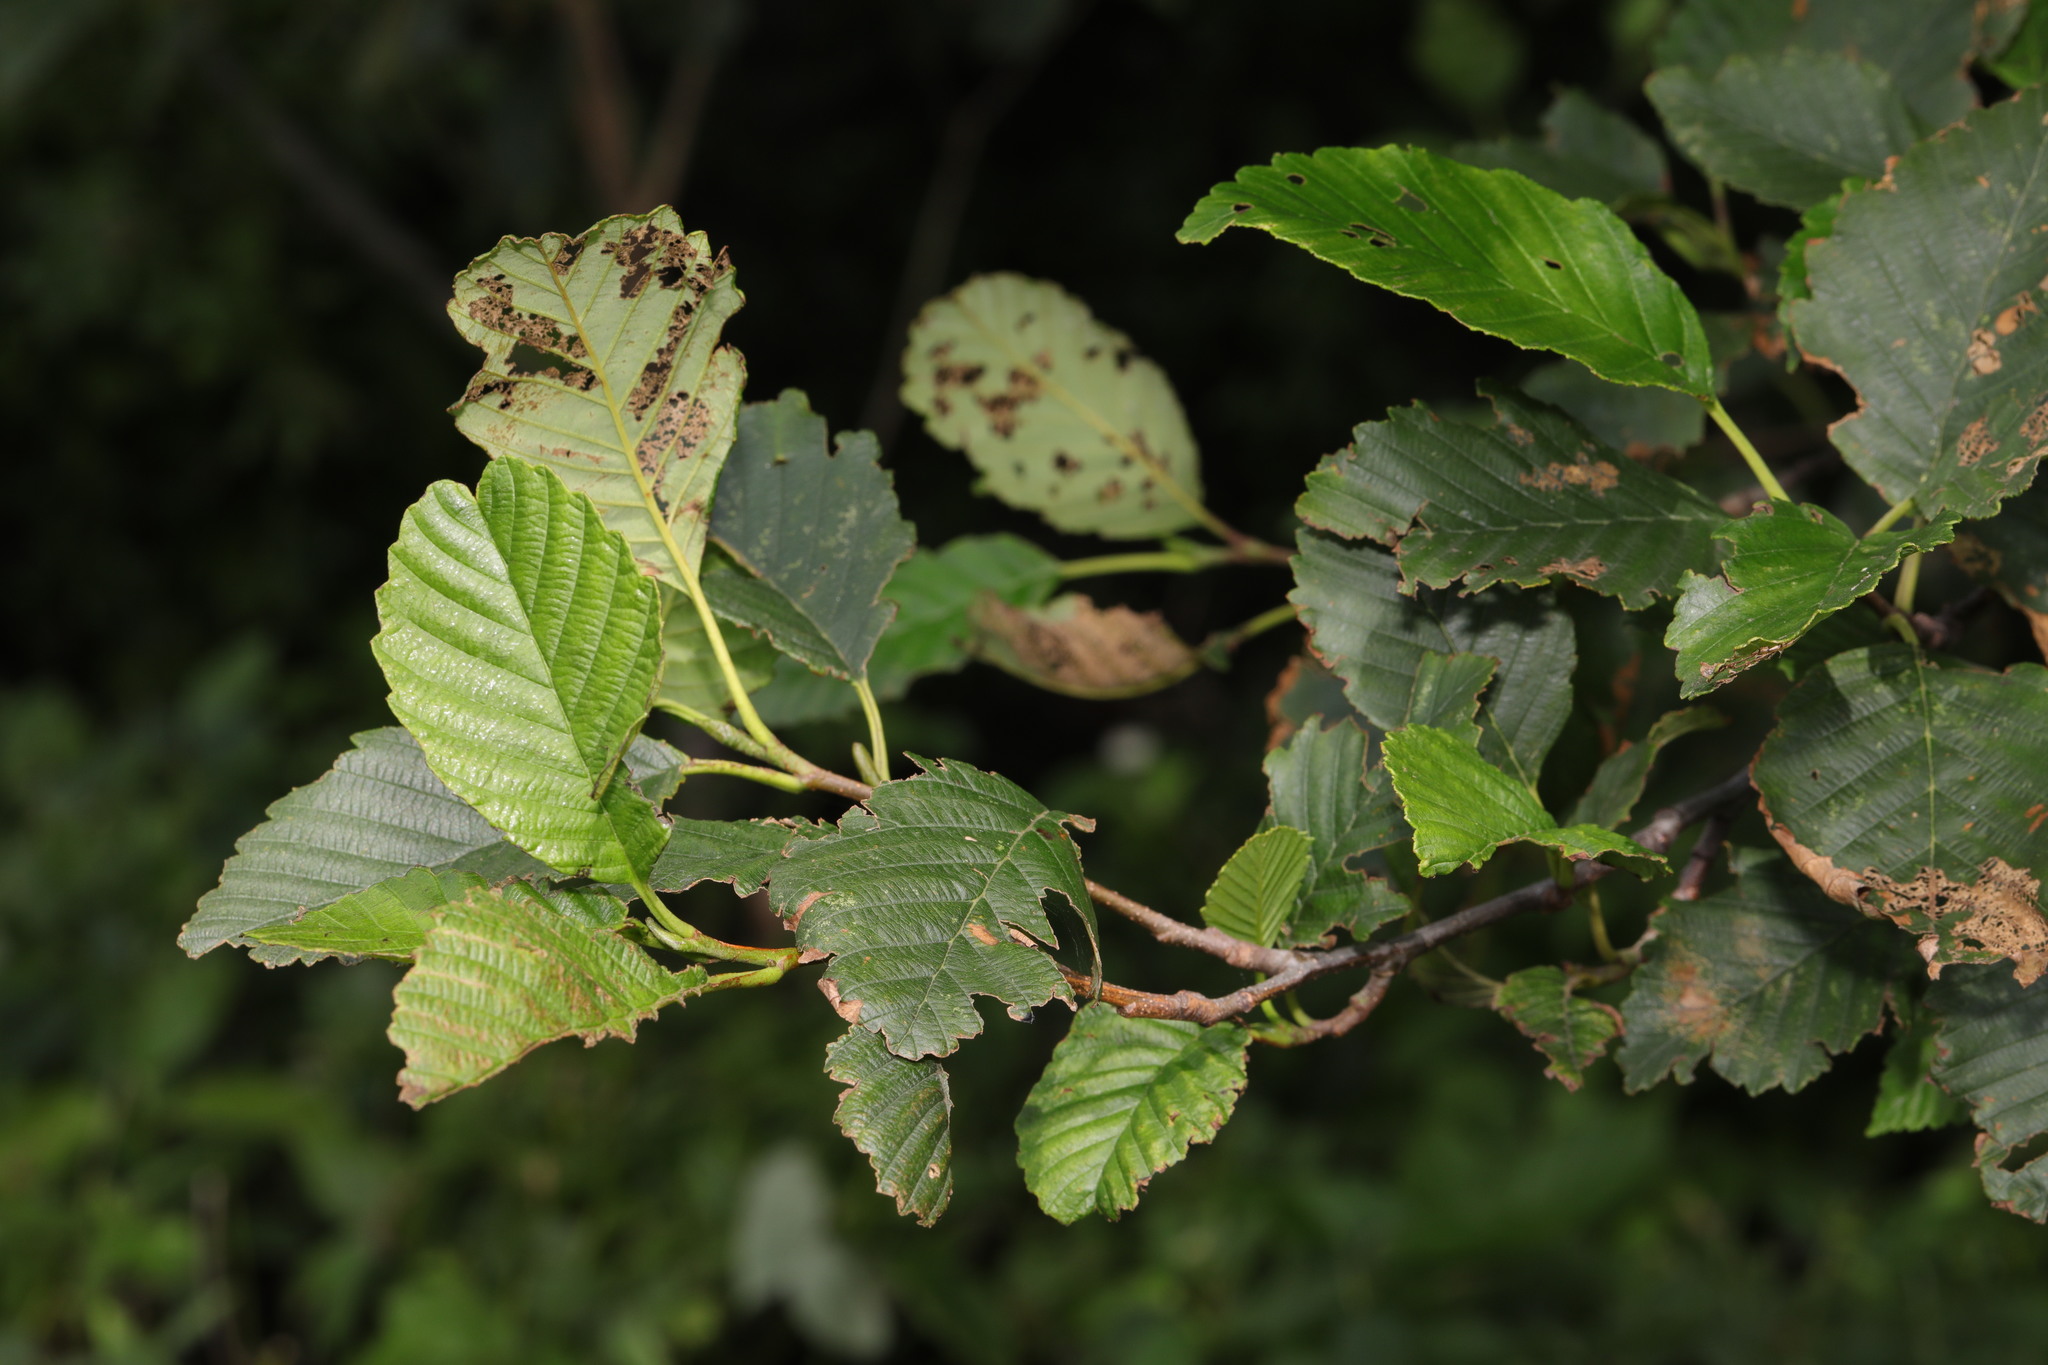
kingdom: Plantae
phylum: Tracheophyta
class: Magnoliopsida
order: Fagales
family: Betulaceae
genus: Alnus
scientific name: Alnus glutinosa
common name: Black alder
